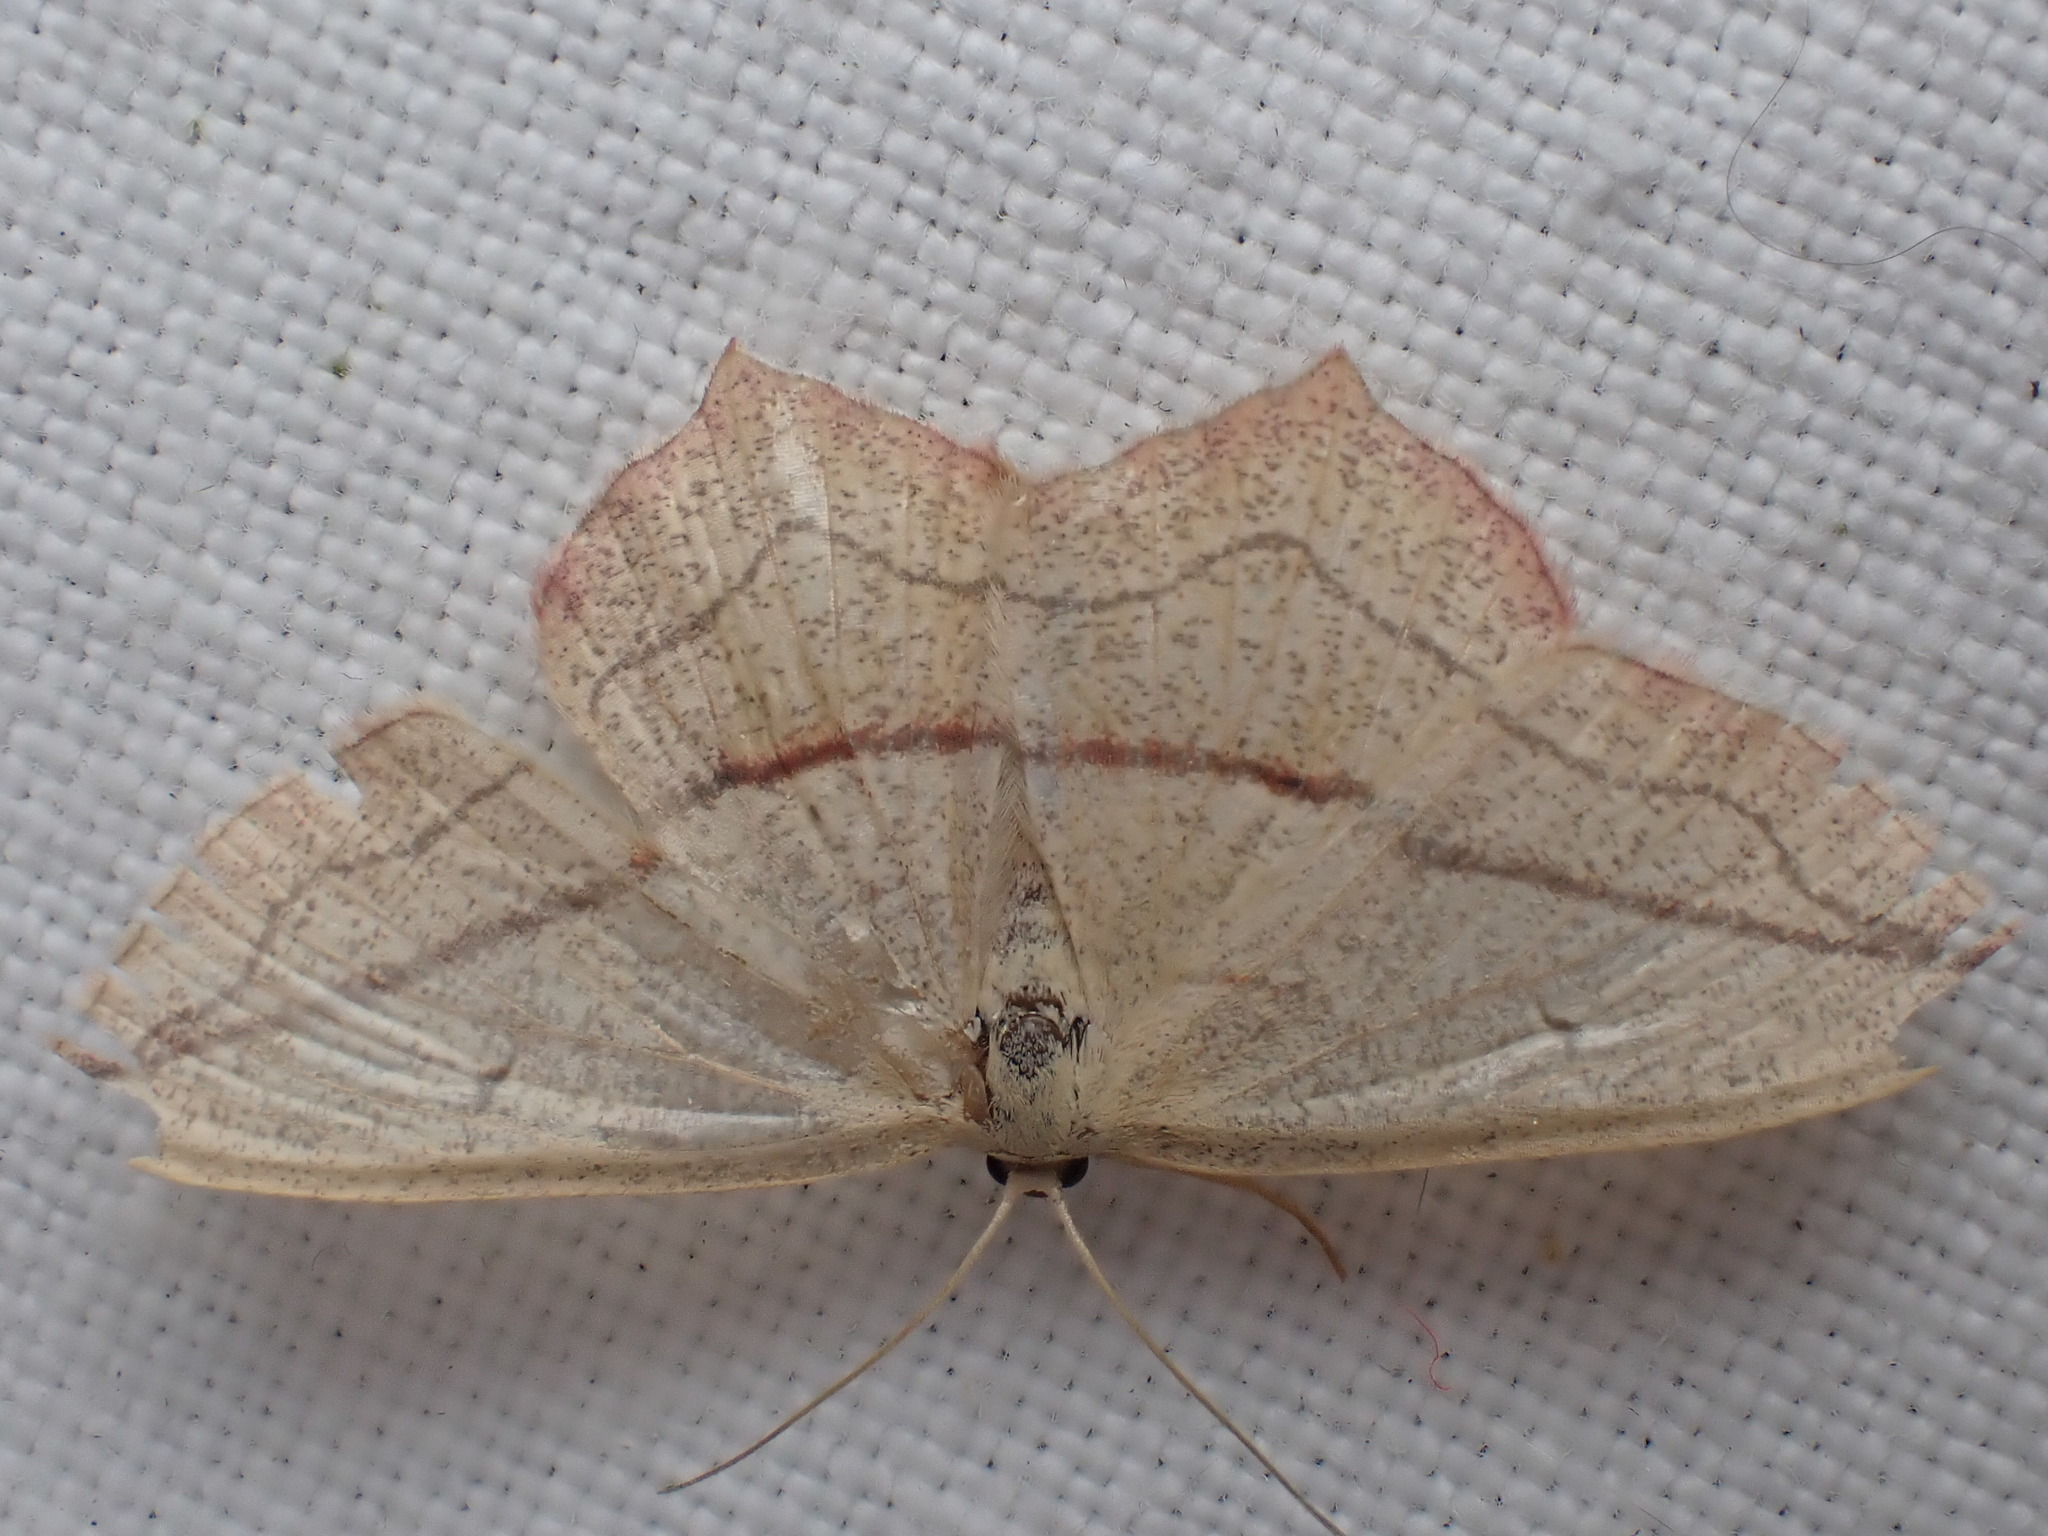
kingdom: Animalia
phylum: Arthropoda
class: Insecta
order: Lepidoptera
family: Geometridae
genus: Timandra
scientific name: Timandra comae
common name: Blood-vein
